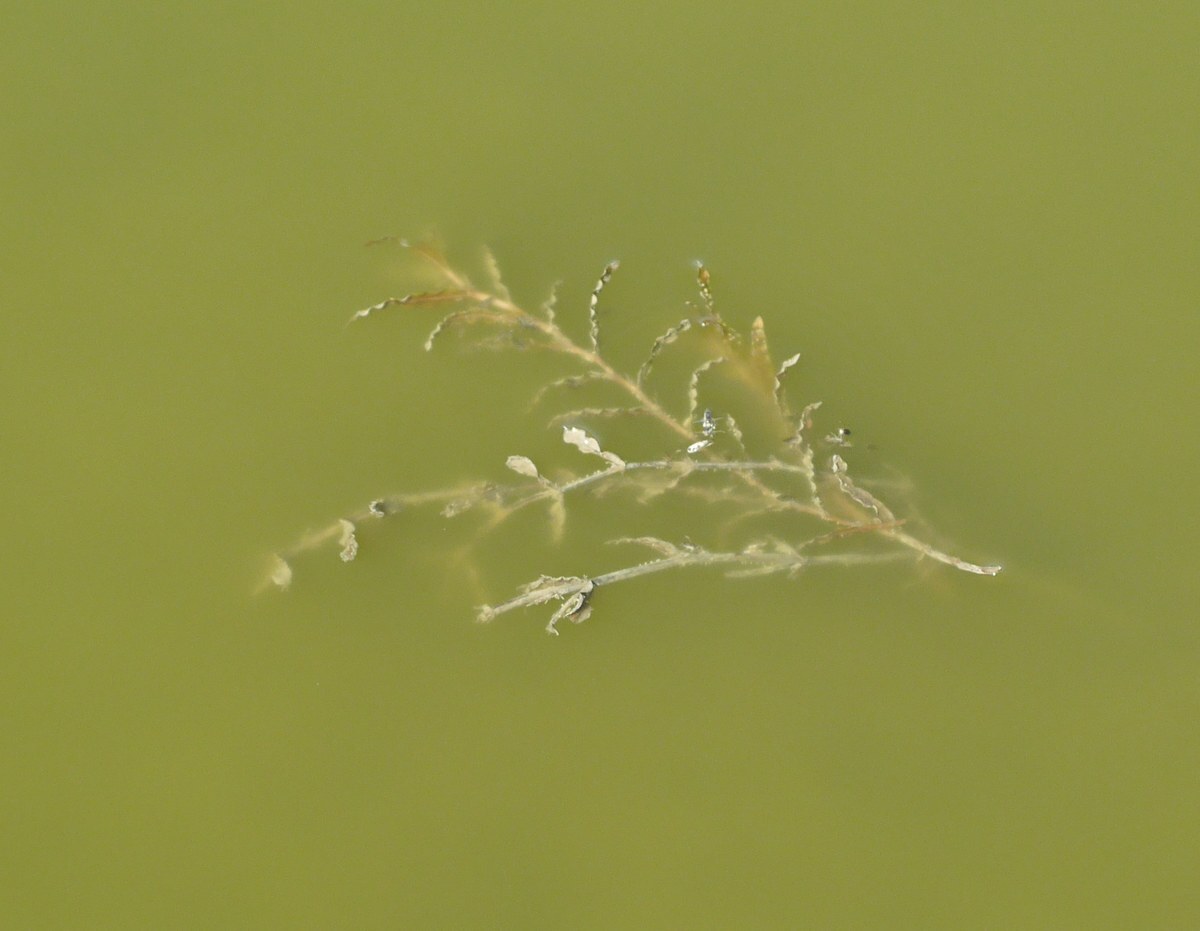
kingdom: Plantae
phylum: Tracheophyta
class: Liliopsida
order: Alismatales
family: Potamogetonaceae
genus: Potamogeton
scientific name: Potamogeton crispus
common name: Curled pondweed
